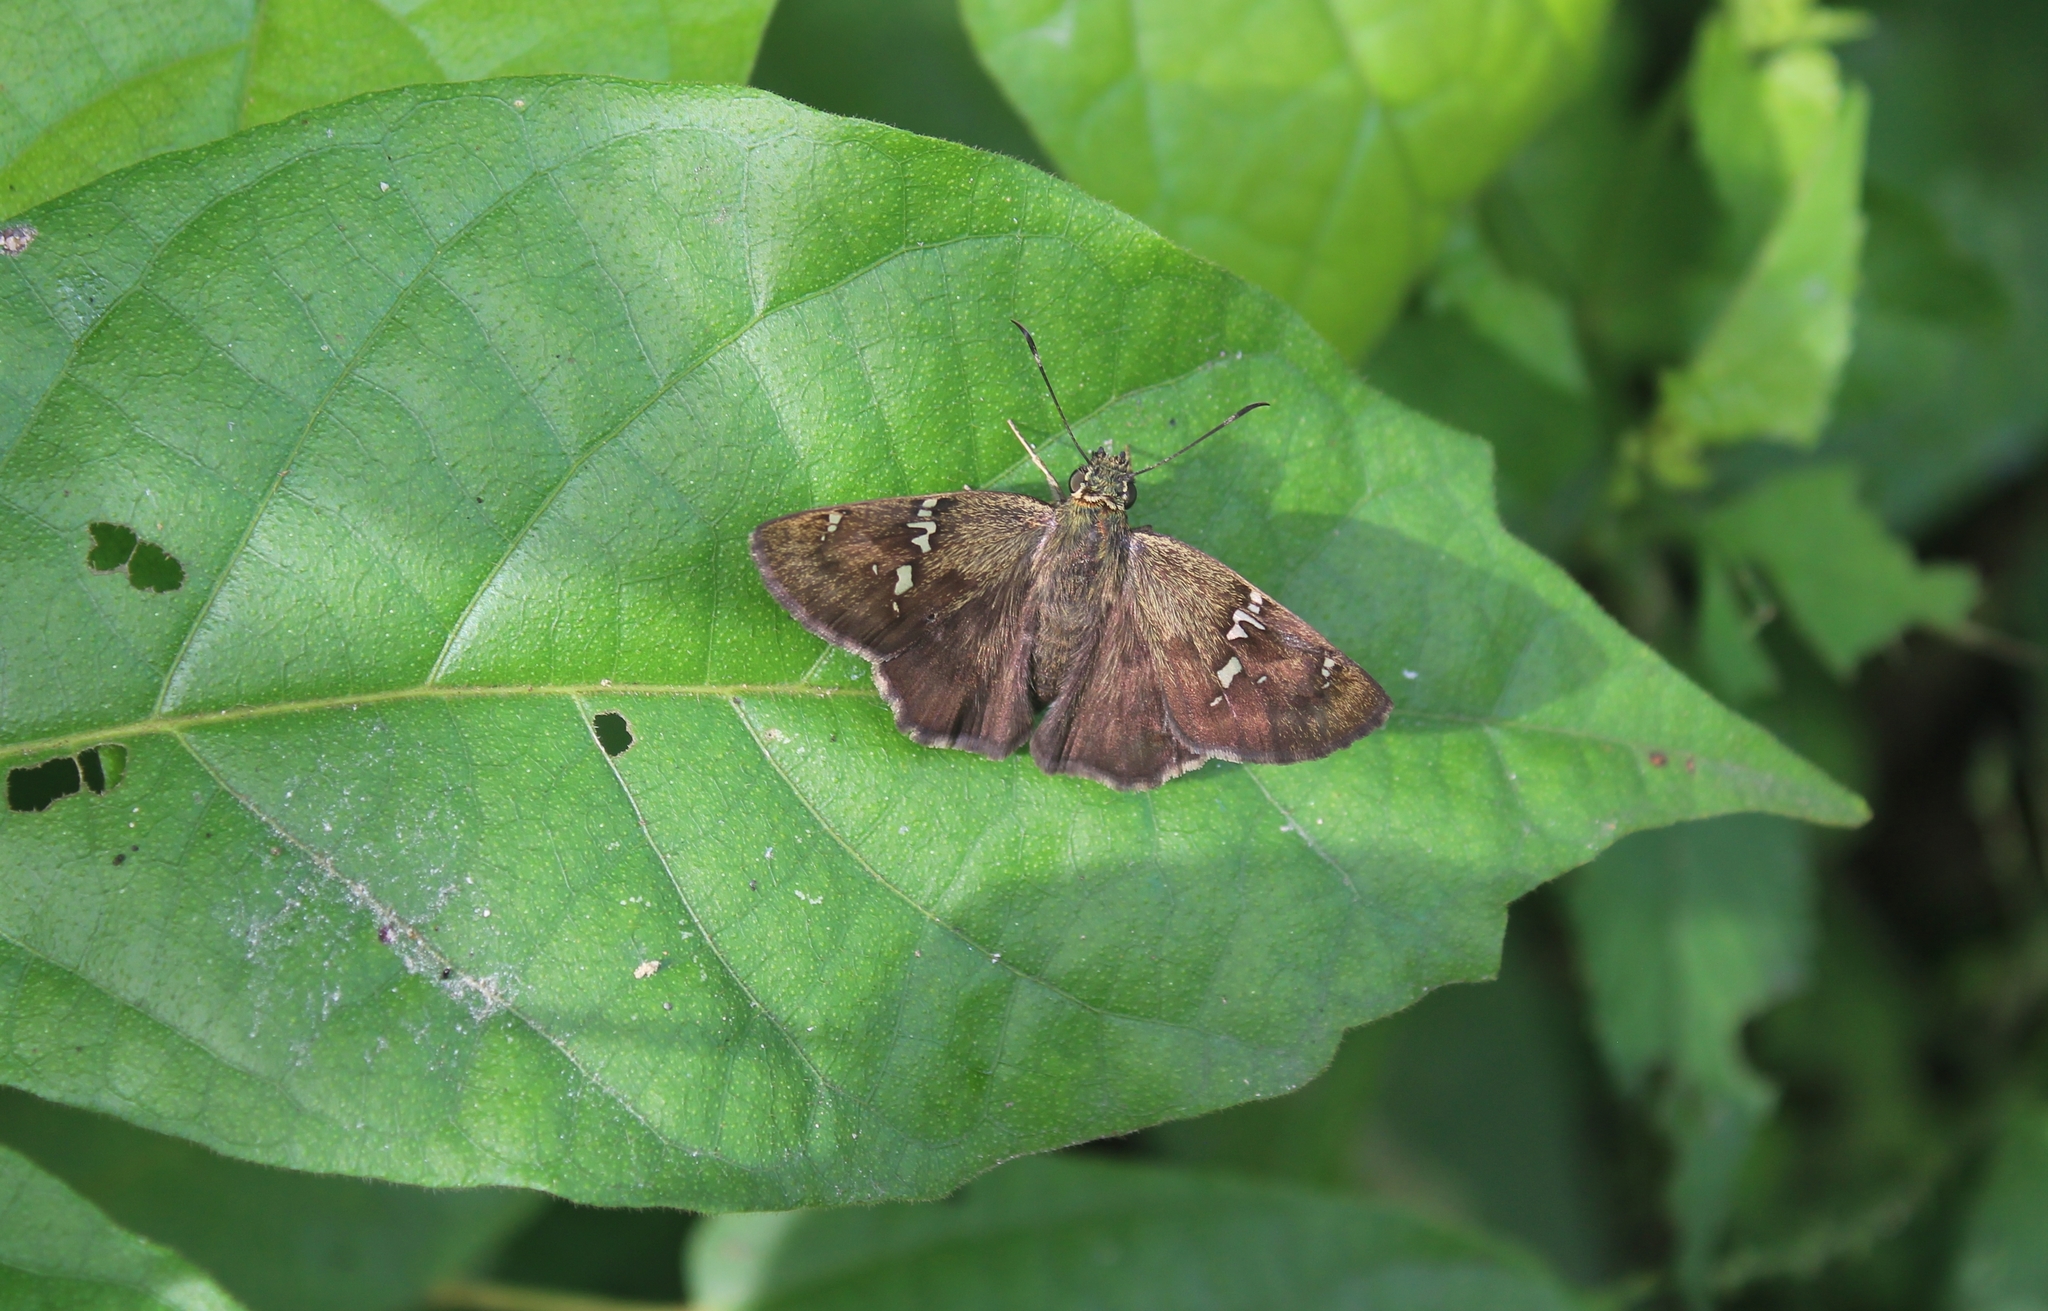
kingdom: Animalia
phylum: Arthropoda
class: Insecta
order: Lepidoptera
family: Hesperiidae
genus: Autochton
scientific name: Autochton potrillo
